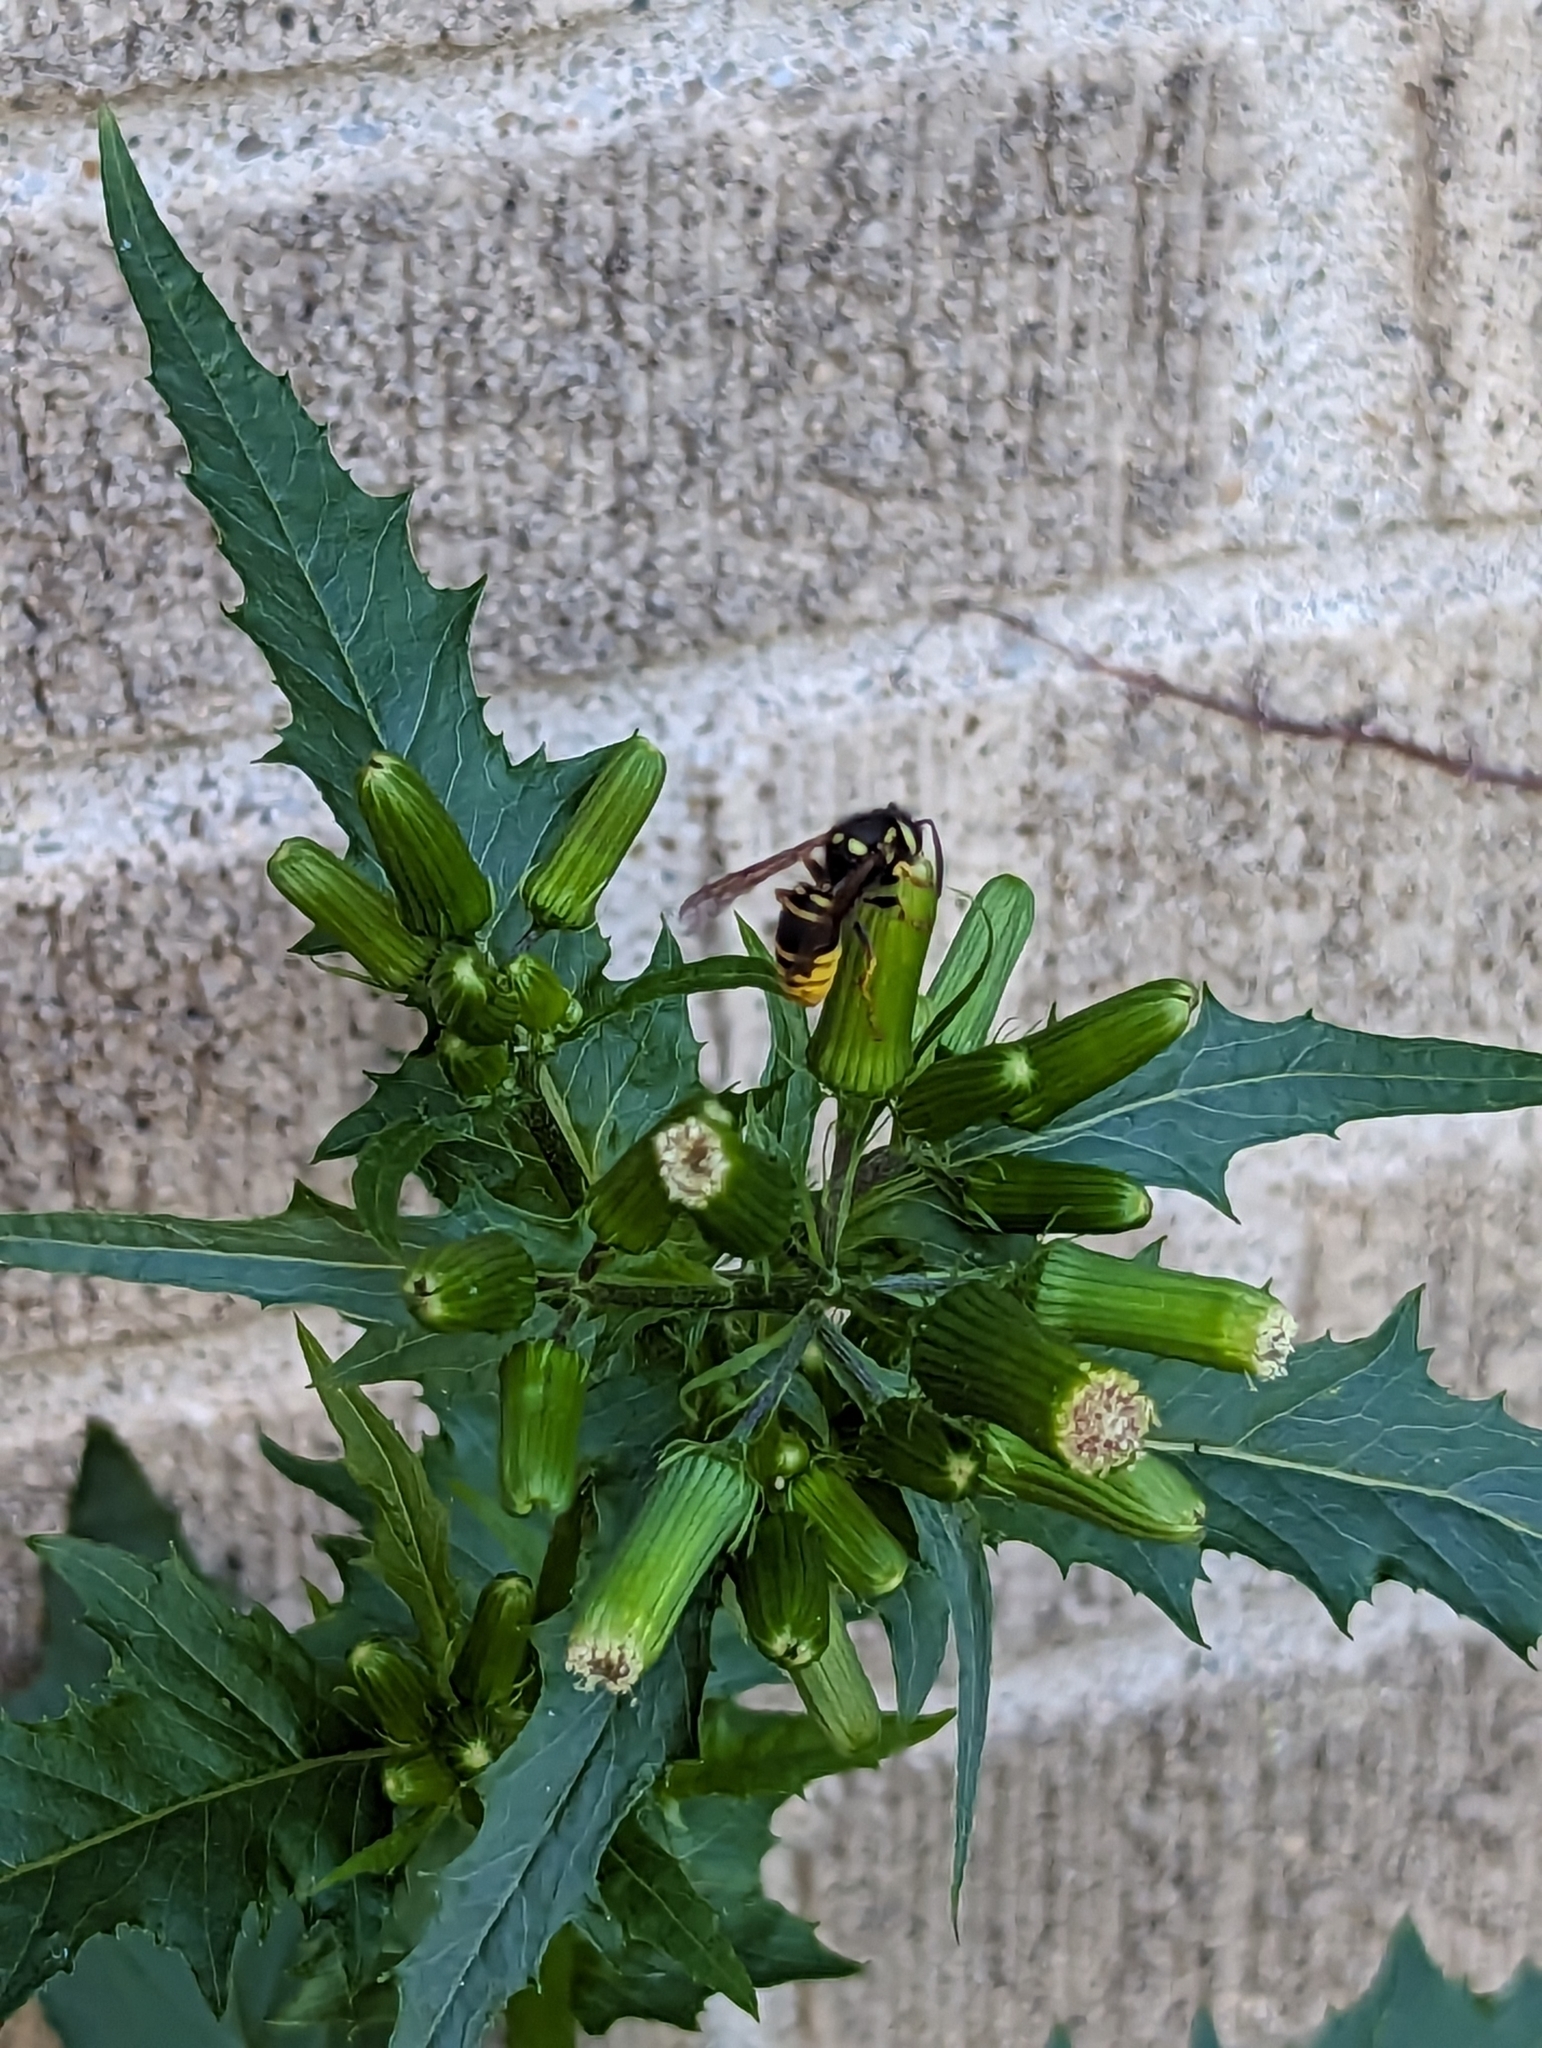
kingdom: Animalia
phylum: Arthropoda
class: Insecta
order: Hymenoptera
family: Vespidae
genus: Vespula
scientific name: Vespula vidua
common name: Widow yellowjacket
